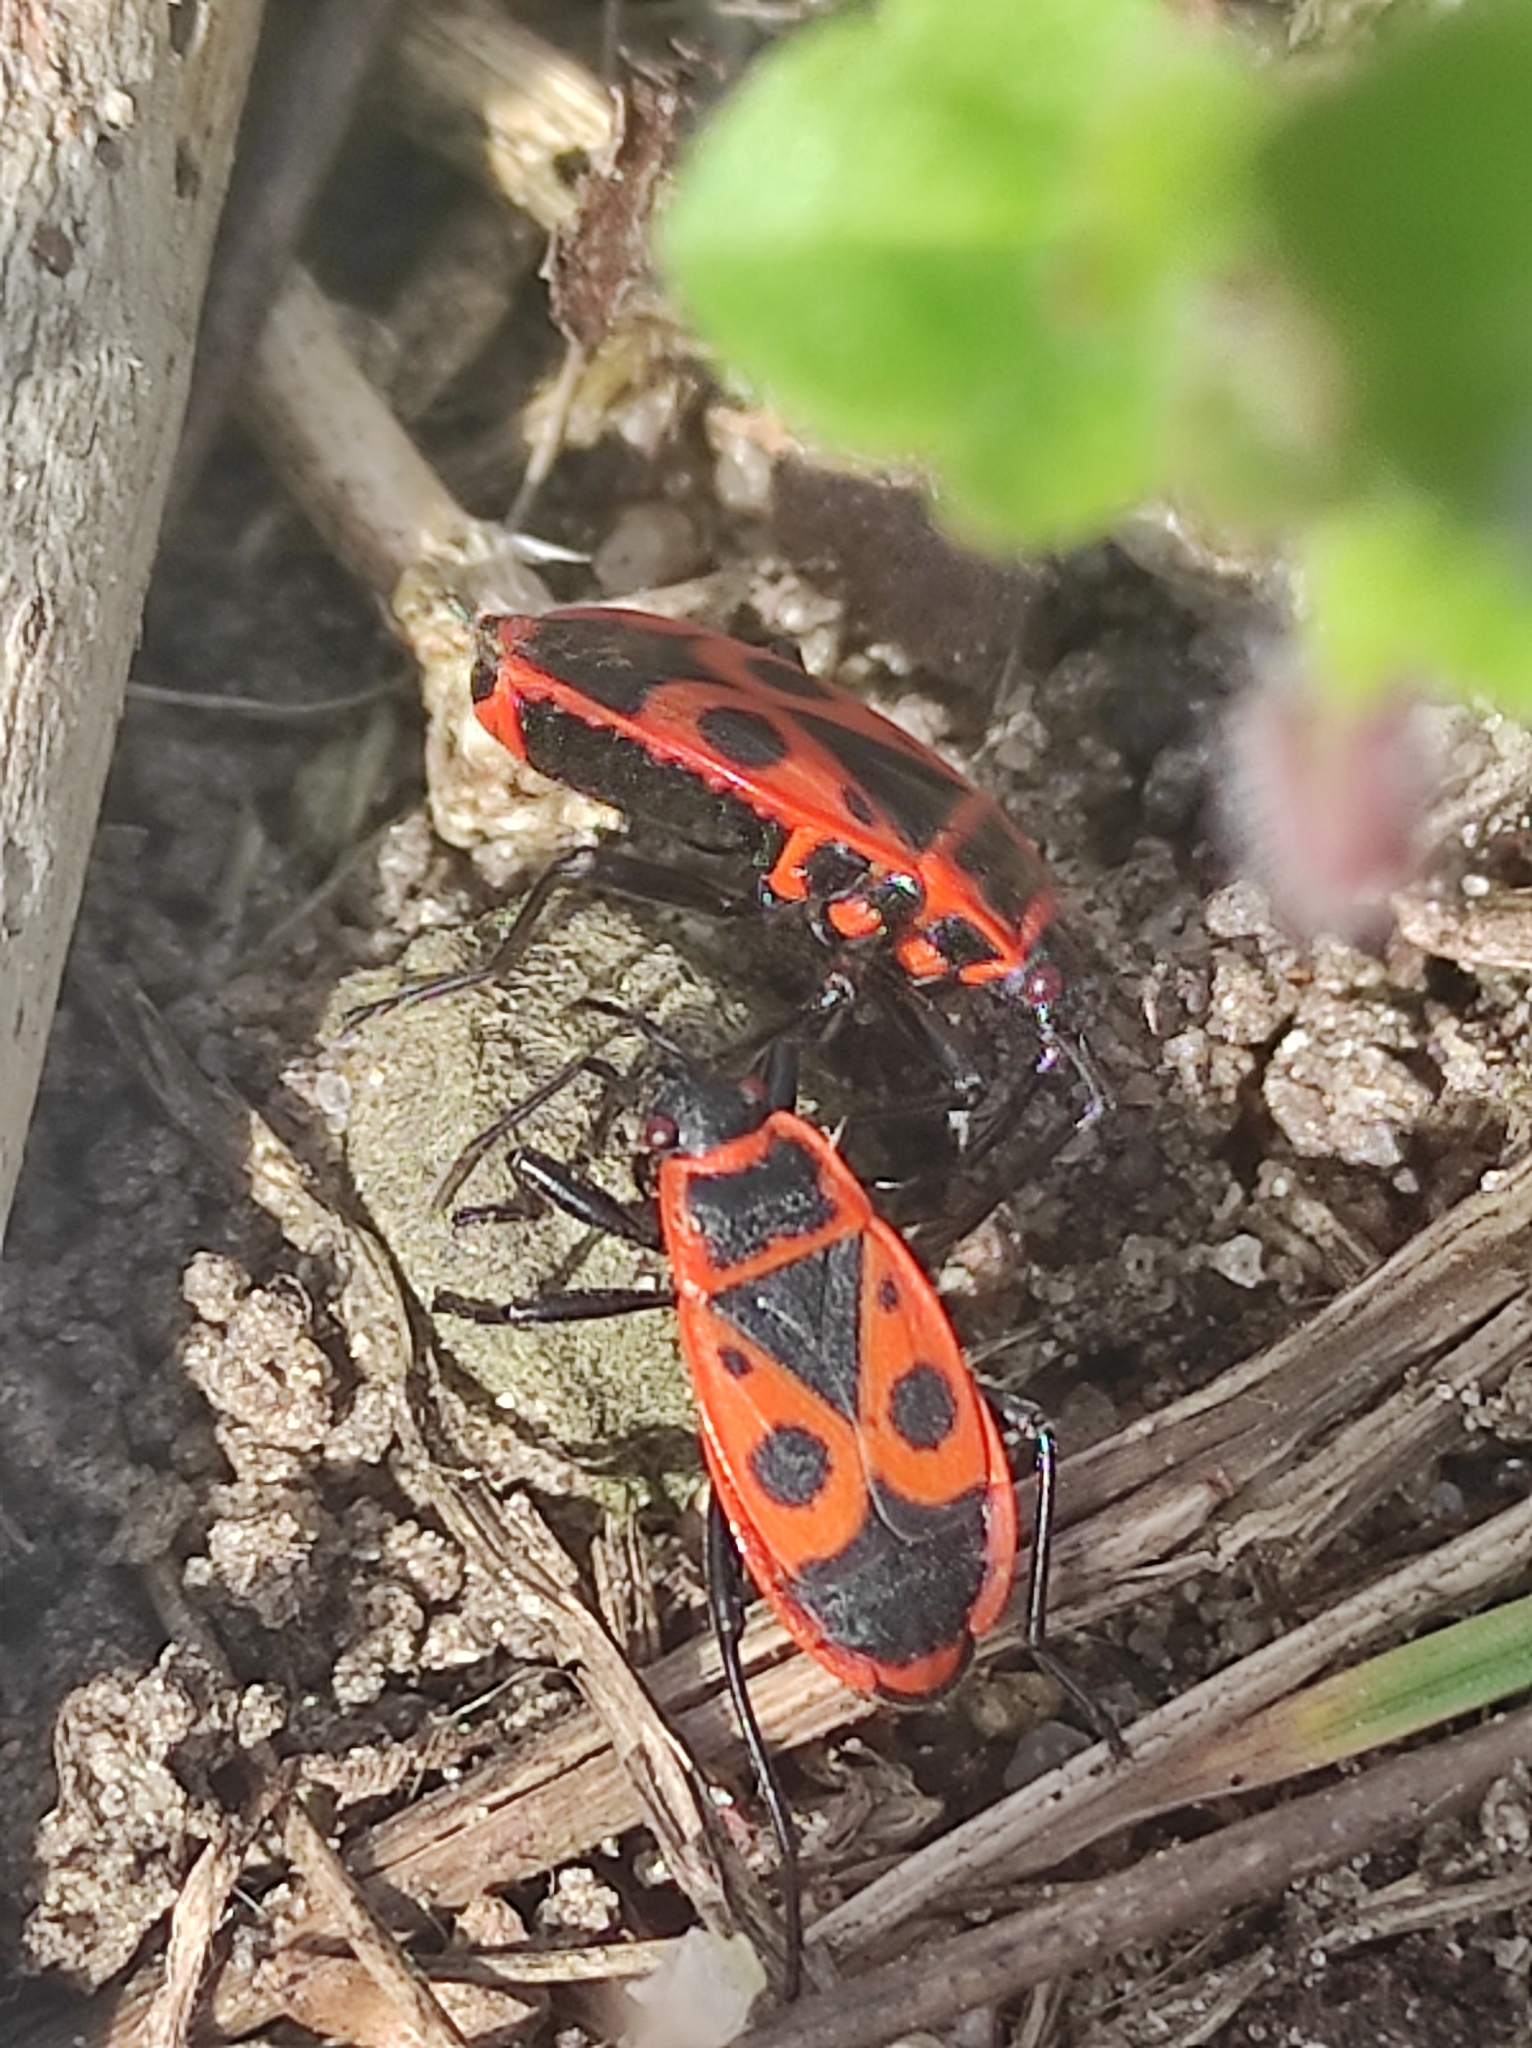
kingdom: Animalia
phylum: Arthropoda
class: Insecta
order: Hemiptera
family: Pyrrhocoridae
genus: Pyrrhocoris
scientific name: Pyrrhocoris apterus
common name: Firebug
